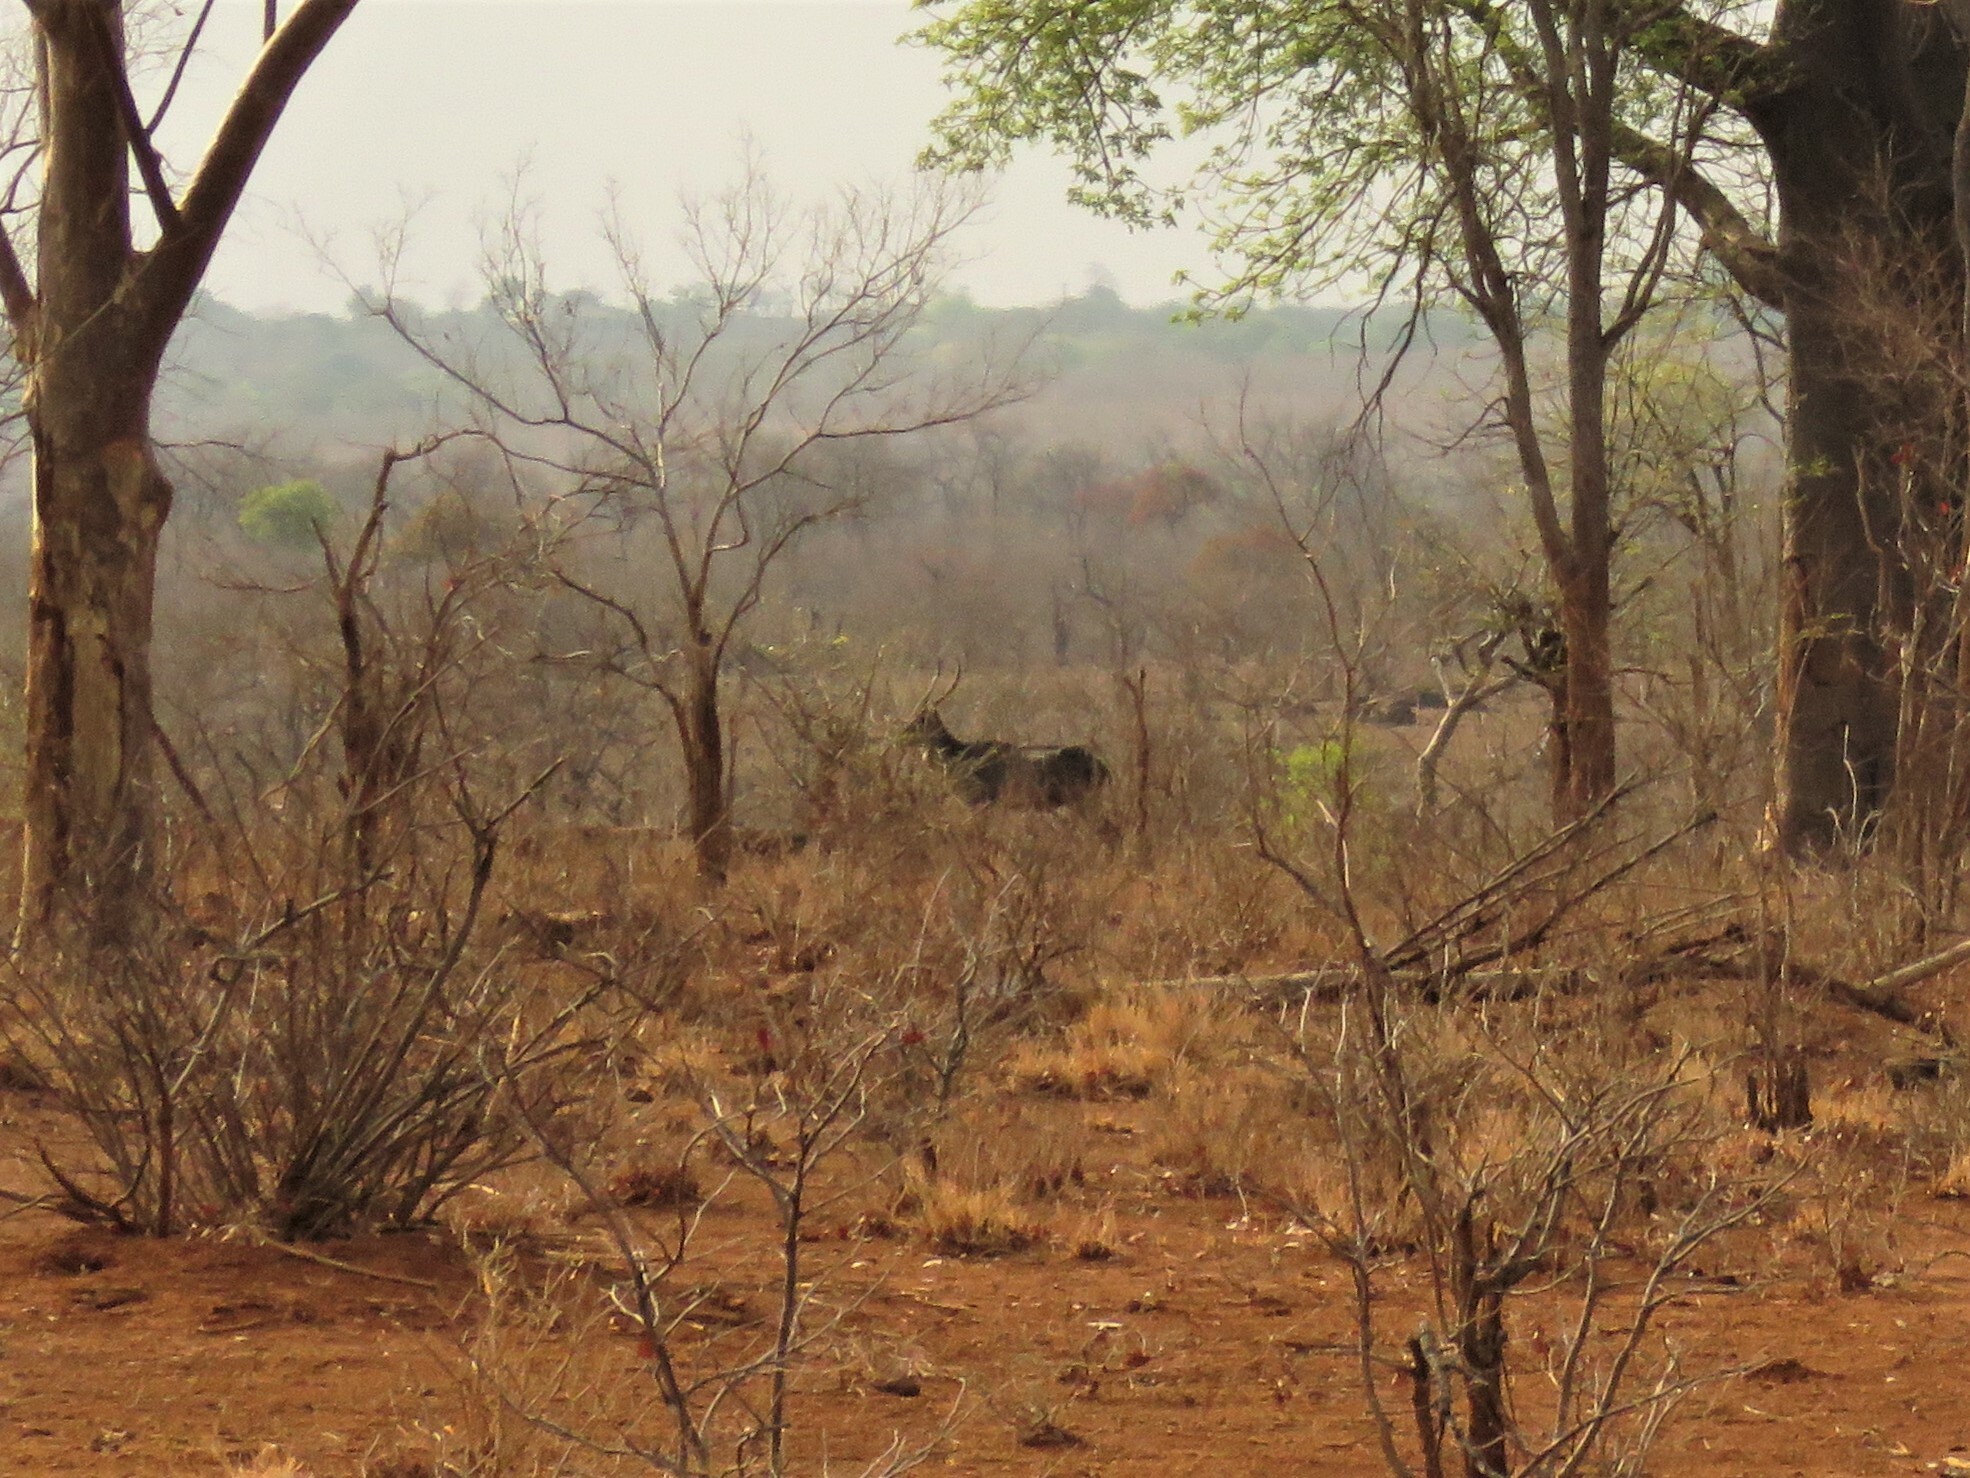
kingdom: Animalia
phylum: Chordata
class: Mammalia
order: Artiodactyla
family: Bovidae
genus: Kobus
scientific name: Kobus ellipsiprymnus
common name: Waterbuck
